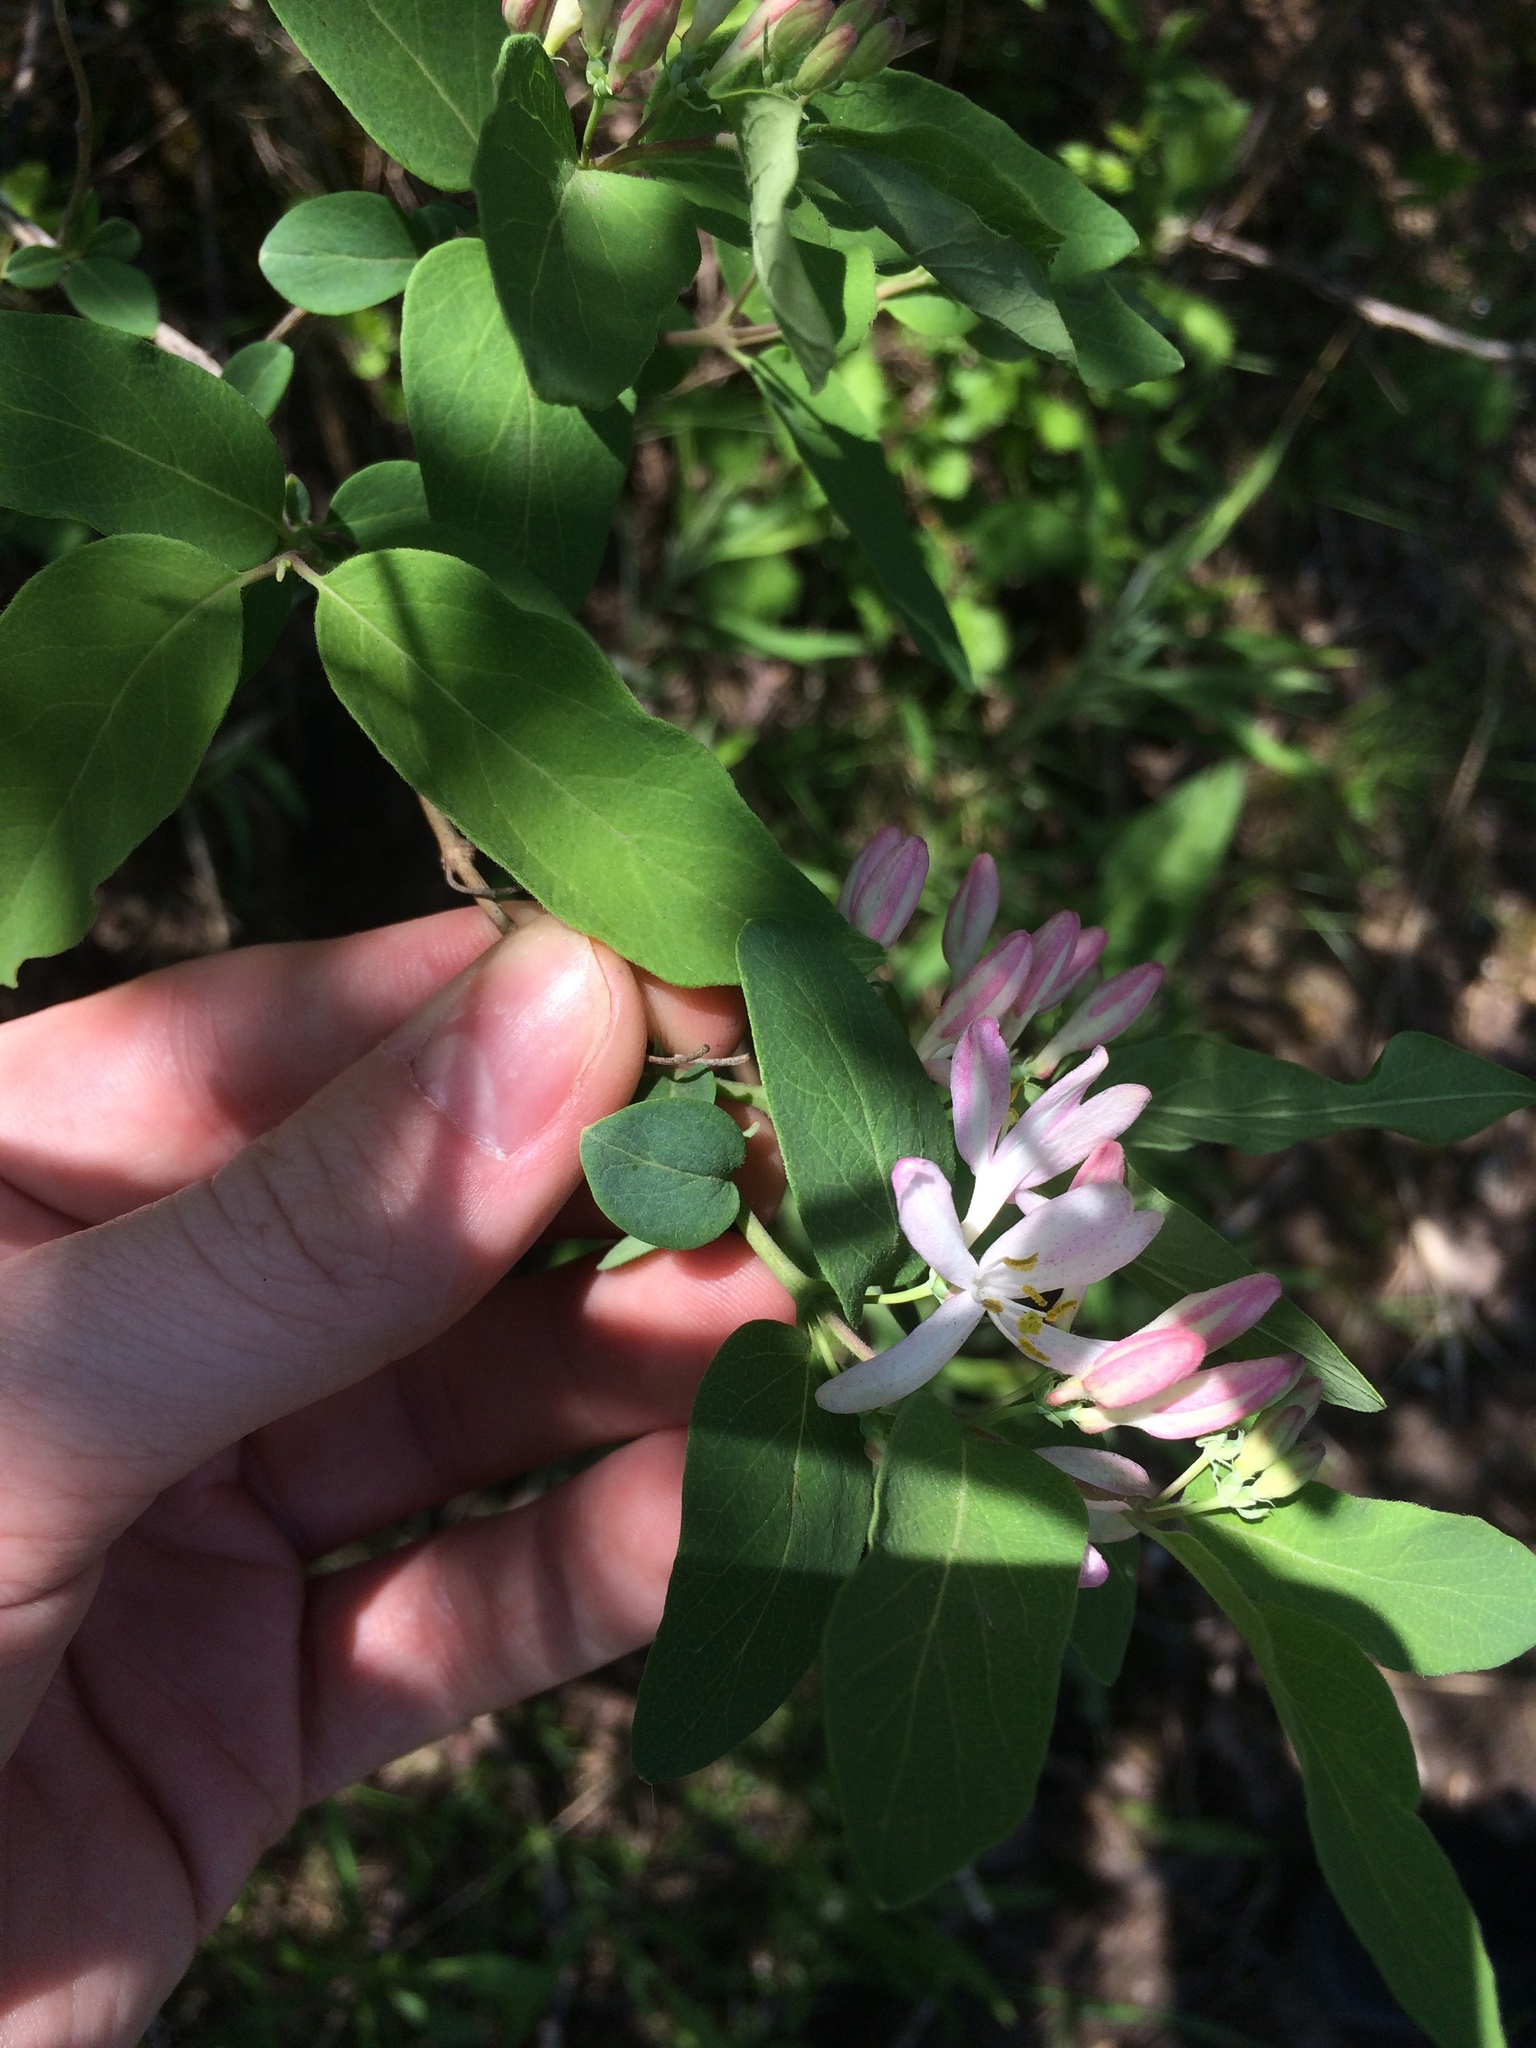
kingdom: Plantae
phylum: Tracheophyta
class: Magnoliopsida
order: Dipsacales
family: Caprifoliaceae
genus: Lonicera
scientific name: Lonicera tatarica
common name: Tatarian honeysuckle
